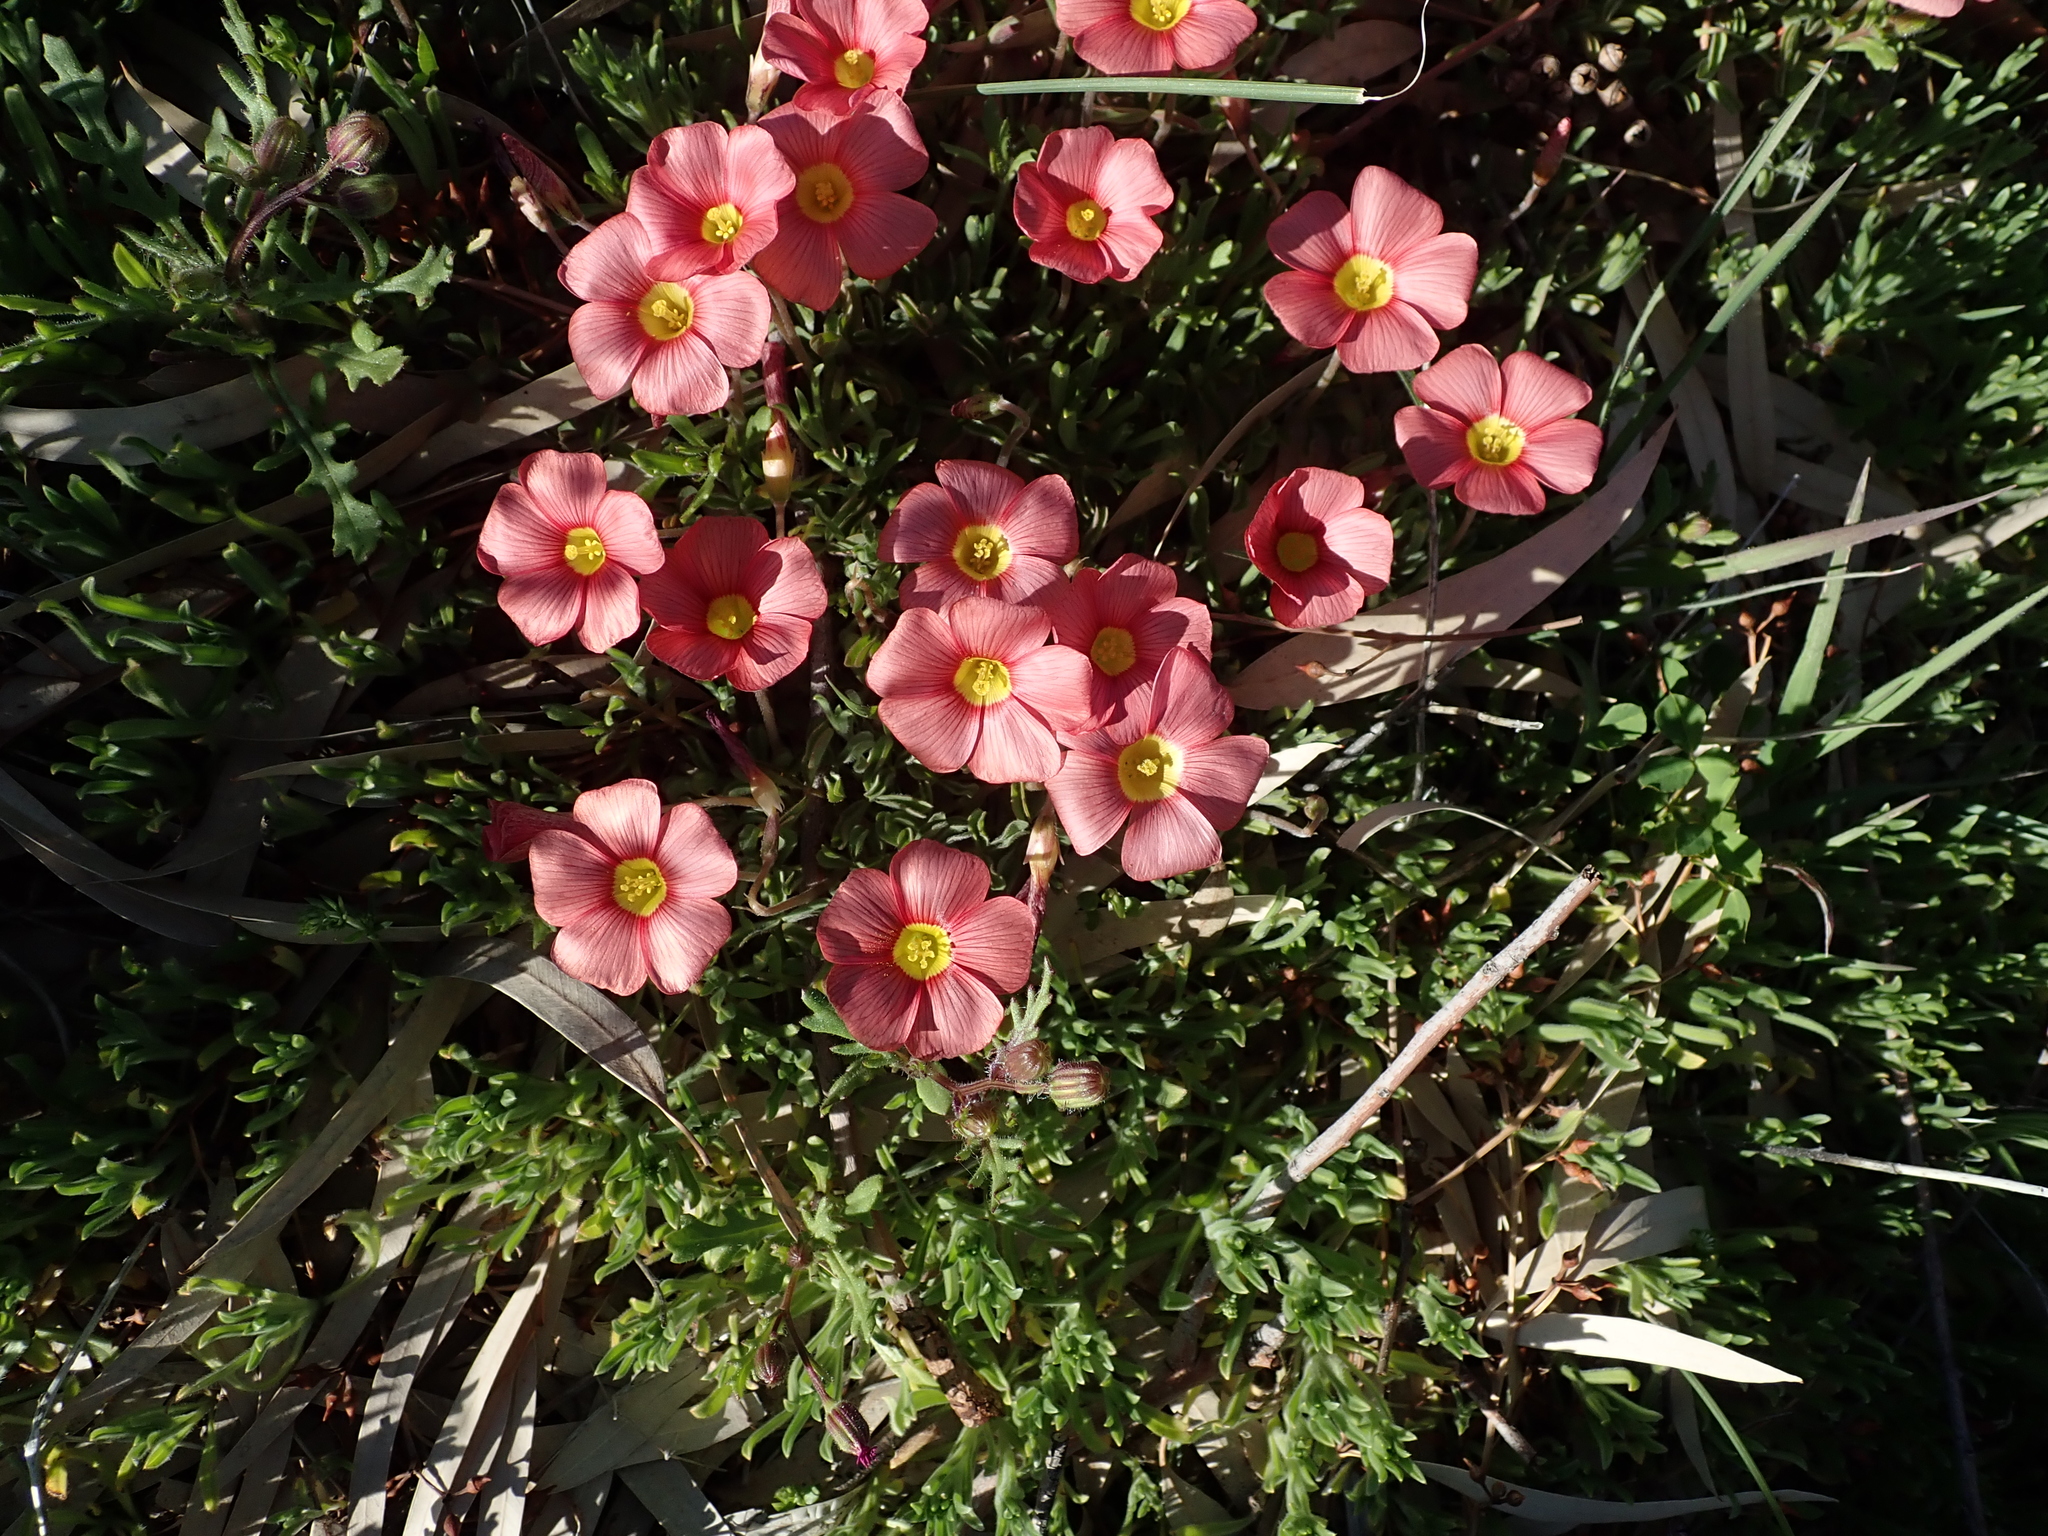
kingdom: Plantae
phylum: Tracheophyta
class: Magnoliopsida
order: Oxalidales
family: Oxalidaceae
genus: Oxalis
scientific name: Oxalis obtusa
